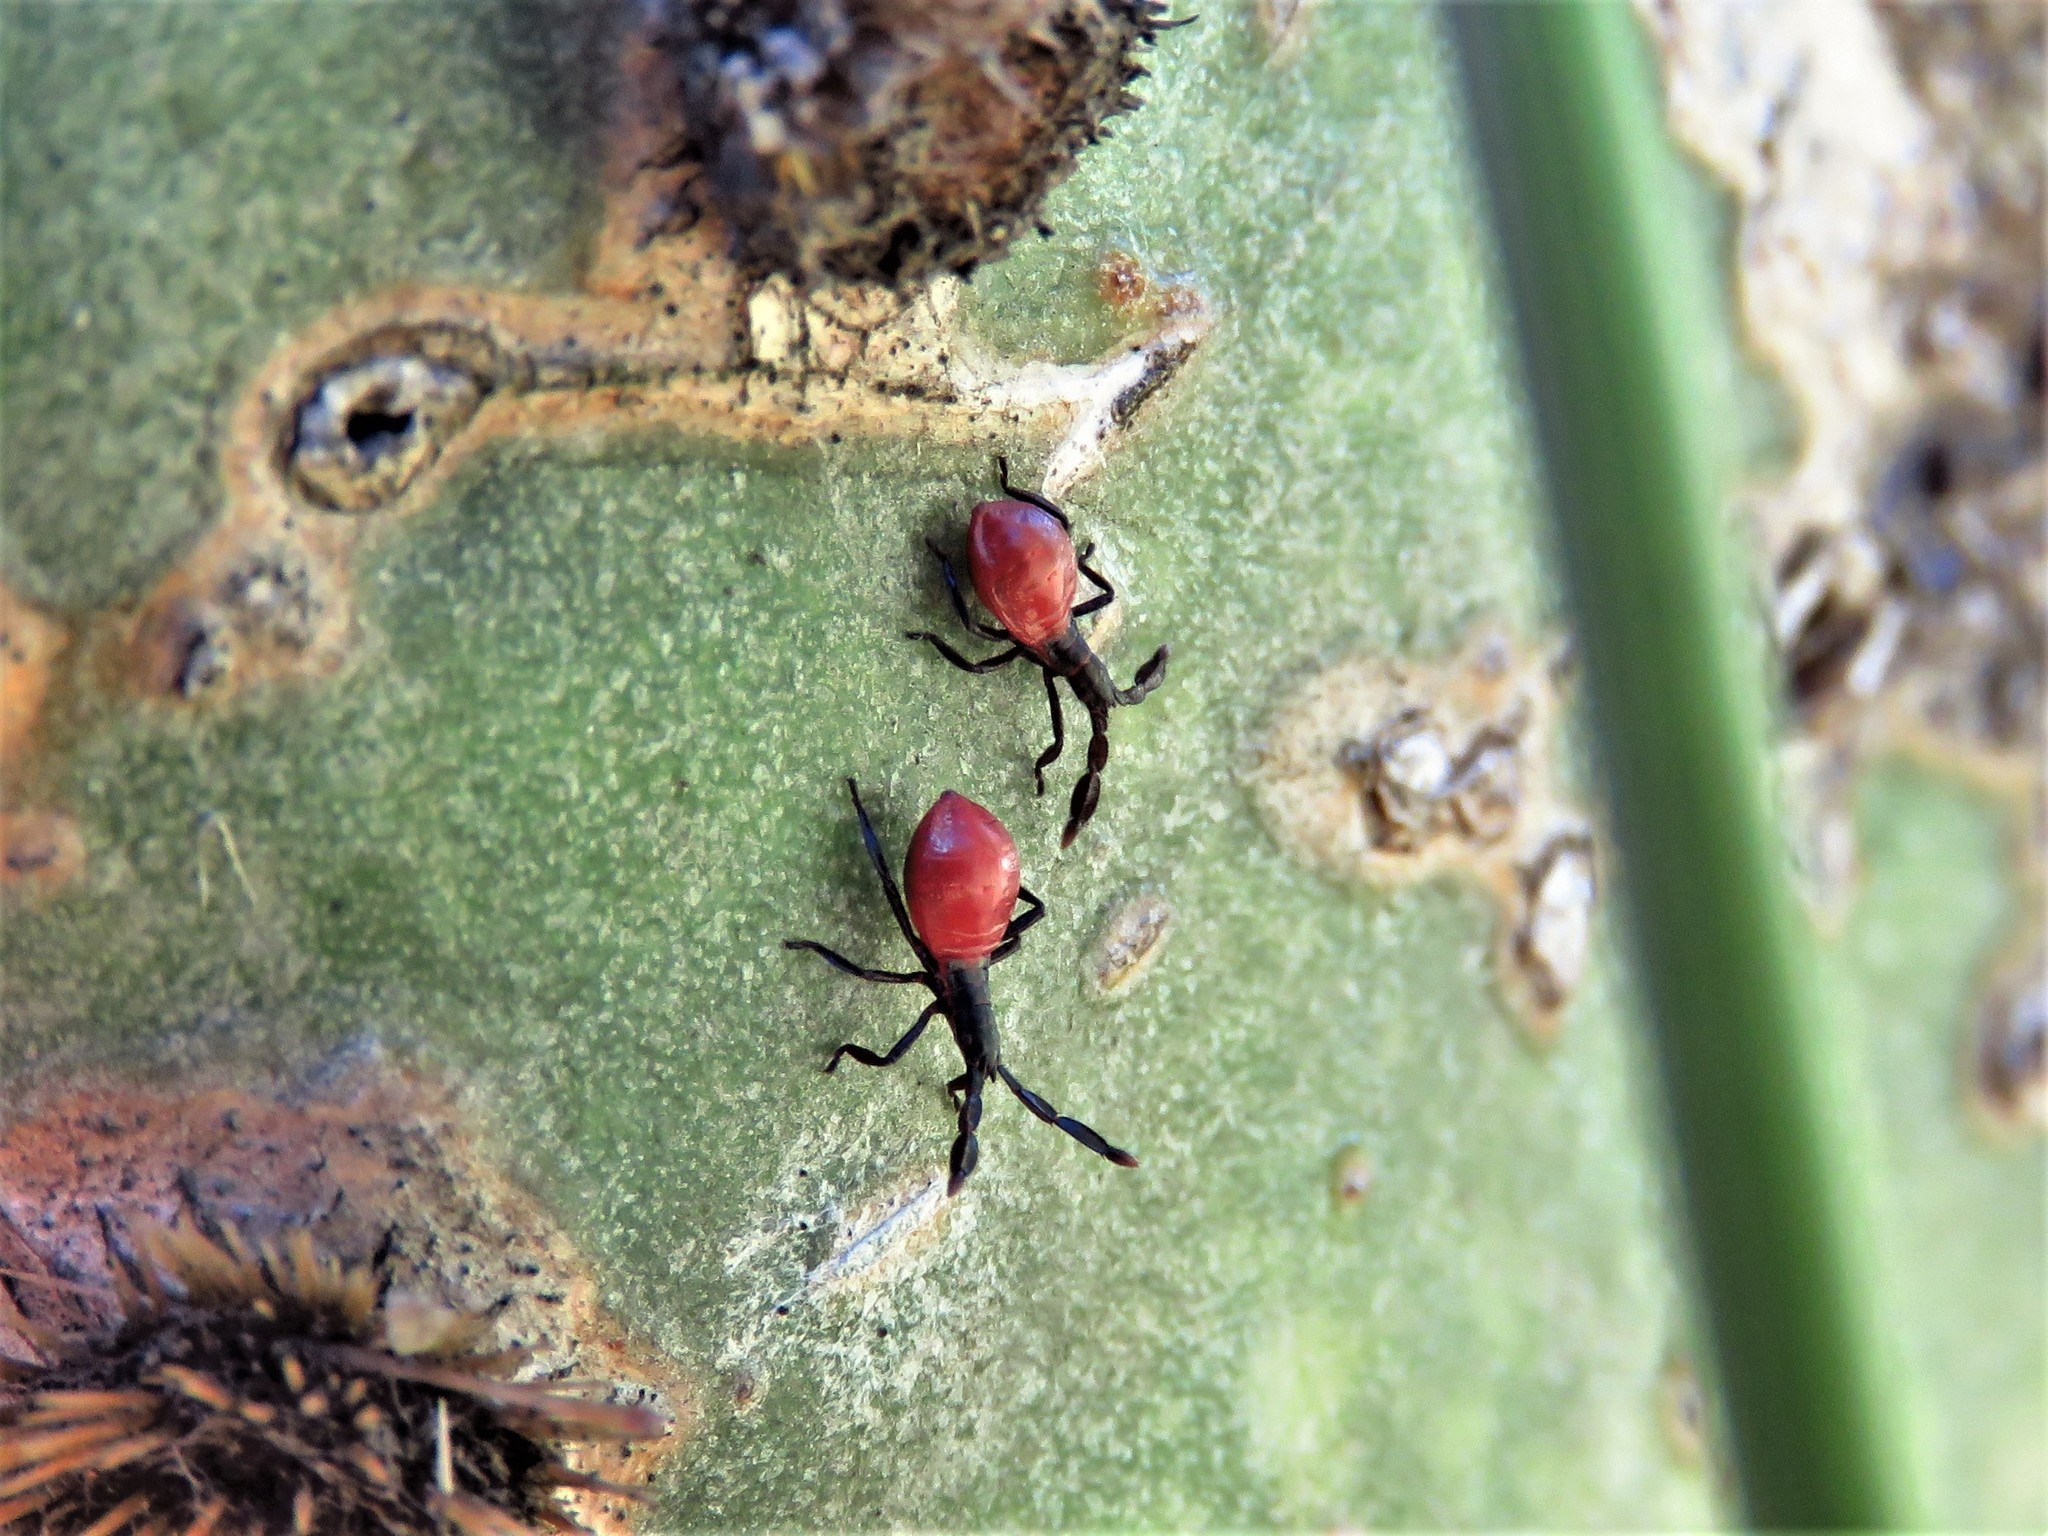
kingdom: Animalia
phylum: Arthropoda
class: Insecta
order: Hemiptera
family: Coreidae
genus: Chelinidea
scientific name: Chelinidea vittiger
